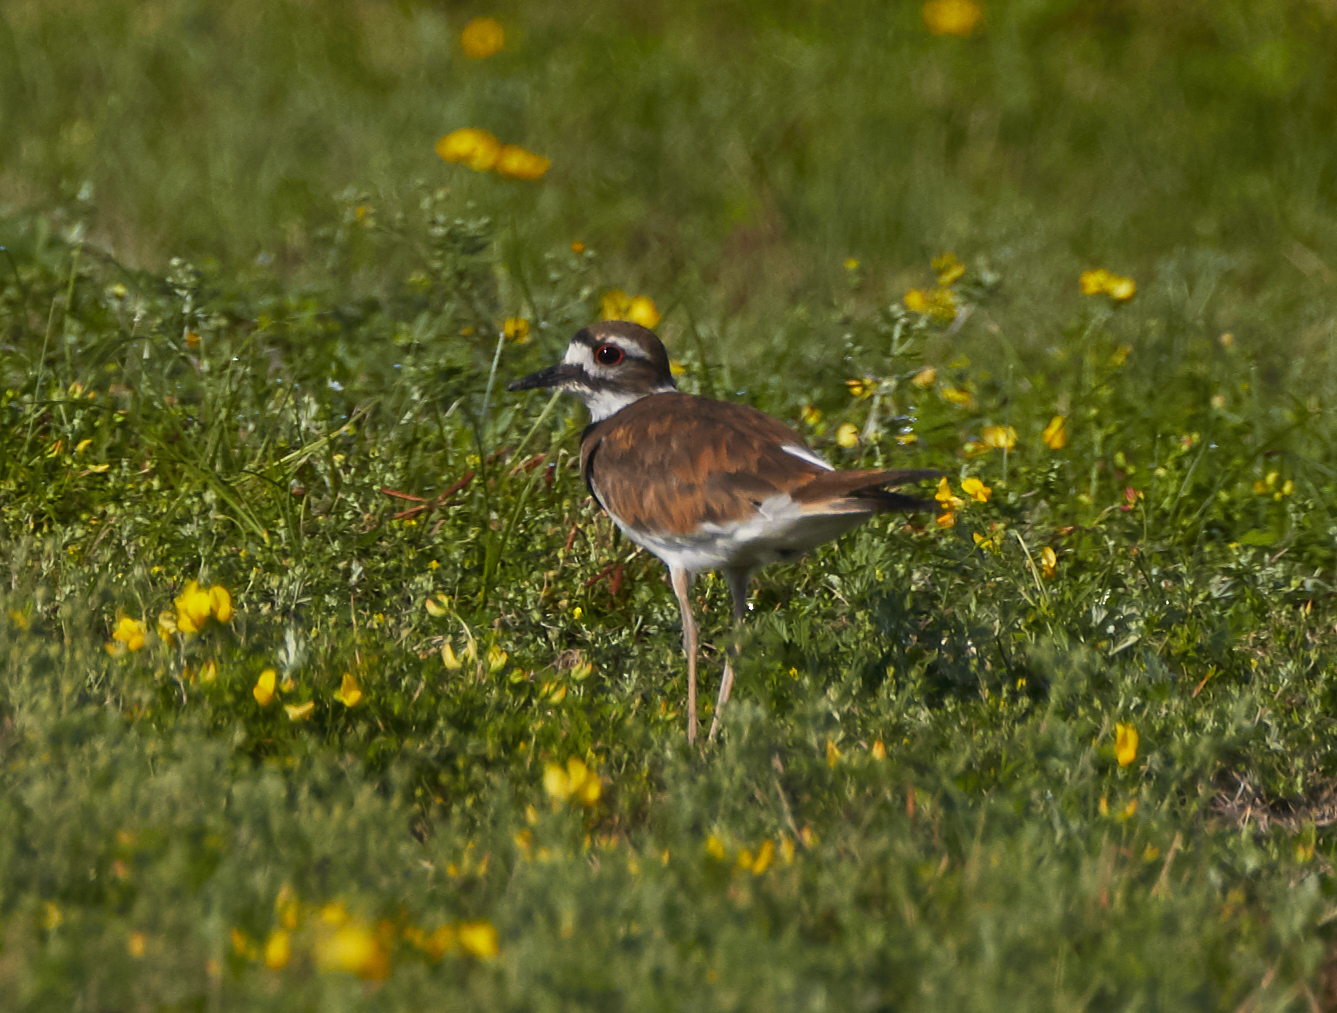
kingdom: Animalia
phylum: Chordata
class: Aves
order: Charadriiformes
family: Charadriidae
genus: Charadrius
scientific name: Charadrius vociferus
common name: Killdeer
